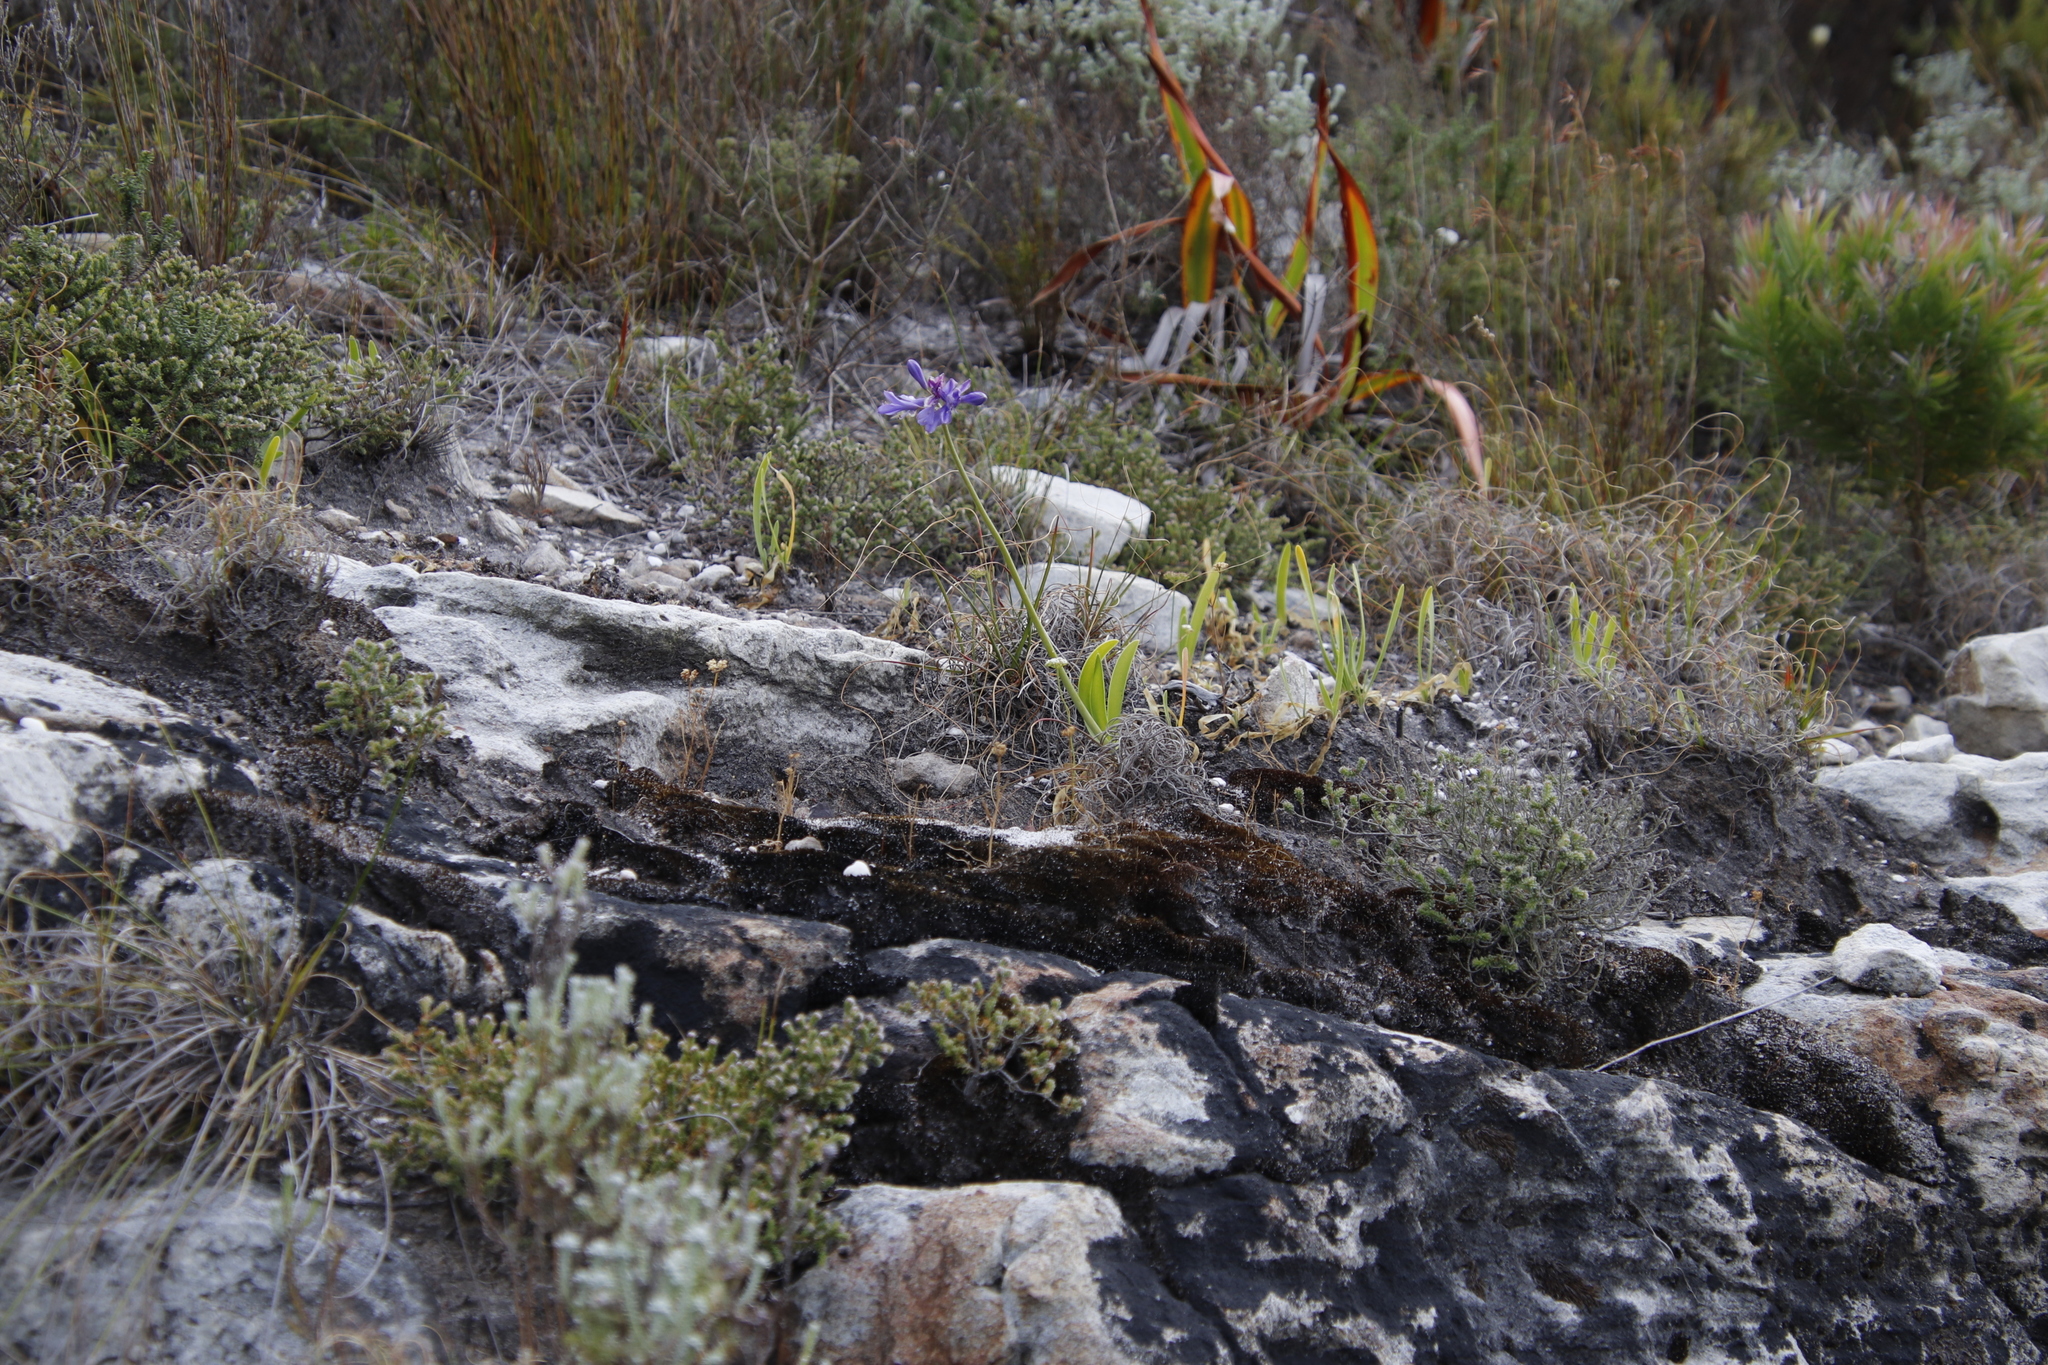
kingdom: Plantae
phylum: Tracheophyta
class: Liliopsida
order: Asparagales
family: Amaryllidaceae
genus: Agapanthus
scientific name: Agapanthus africanus
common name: Lily-of-the-nile
